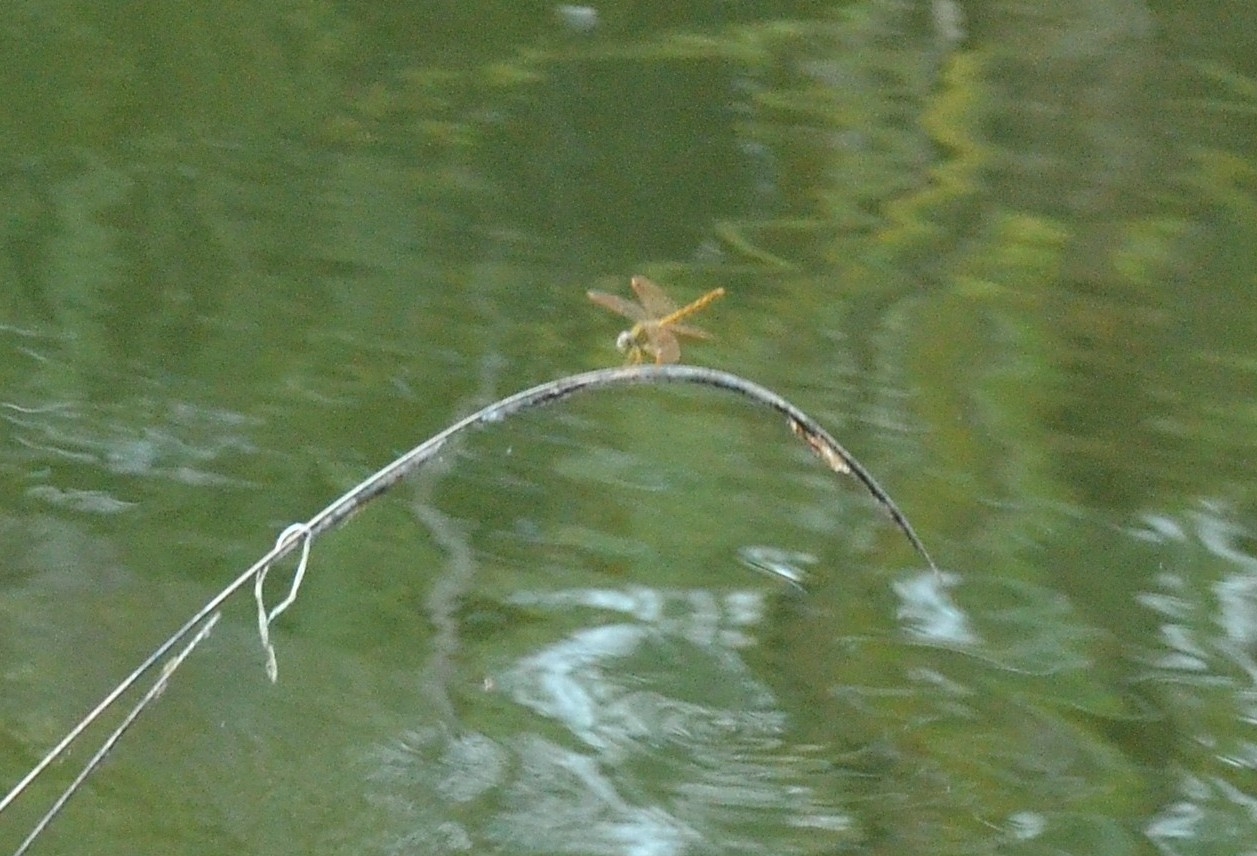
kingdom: Animalia
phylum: Arthropoda
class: Insecta
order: Odonata
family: Libellulidae
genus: Brachythemis
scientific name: Brachythemis contaminata
